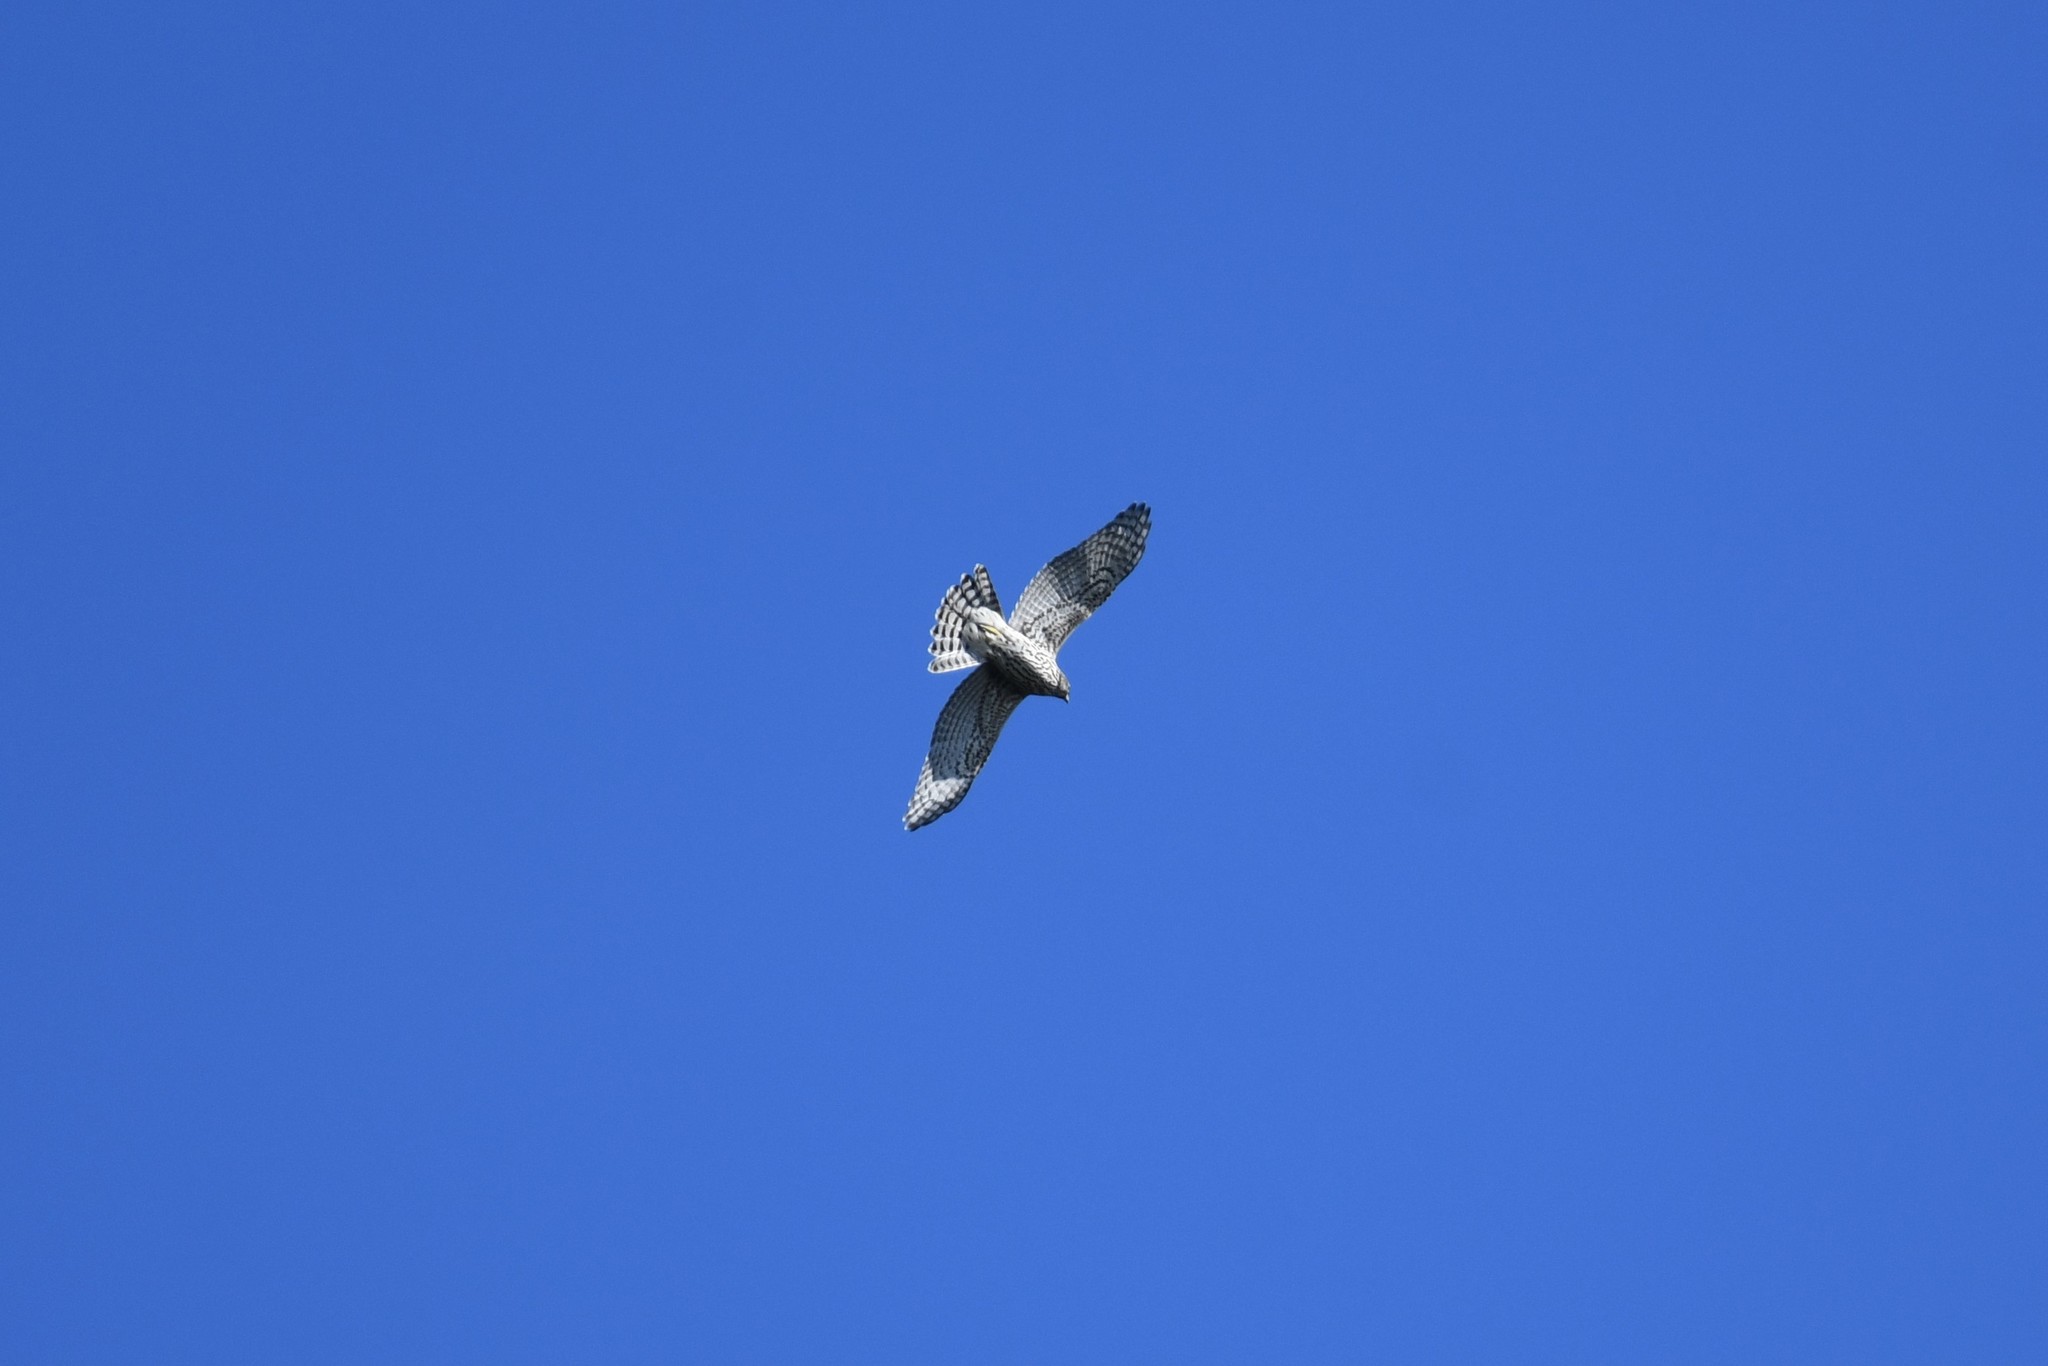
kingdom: Animalia
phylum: Chordata
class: Aves
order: Accipitriformes
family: Accipitridae
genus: Accipiter
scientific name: Accipiter gentilis
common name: Northern goshawk
